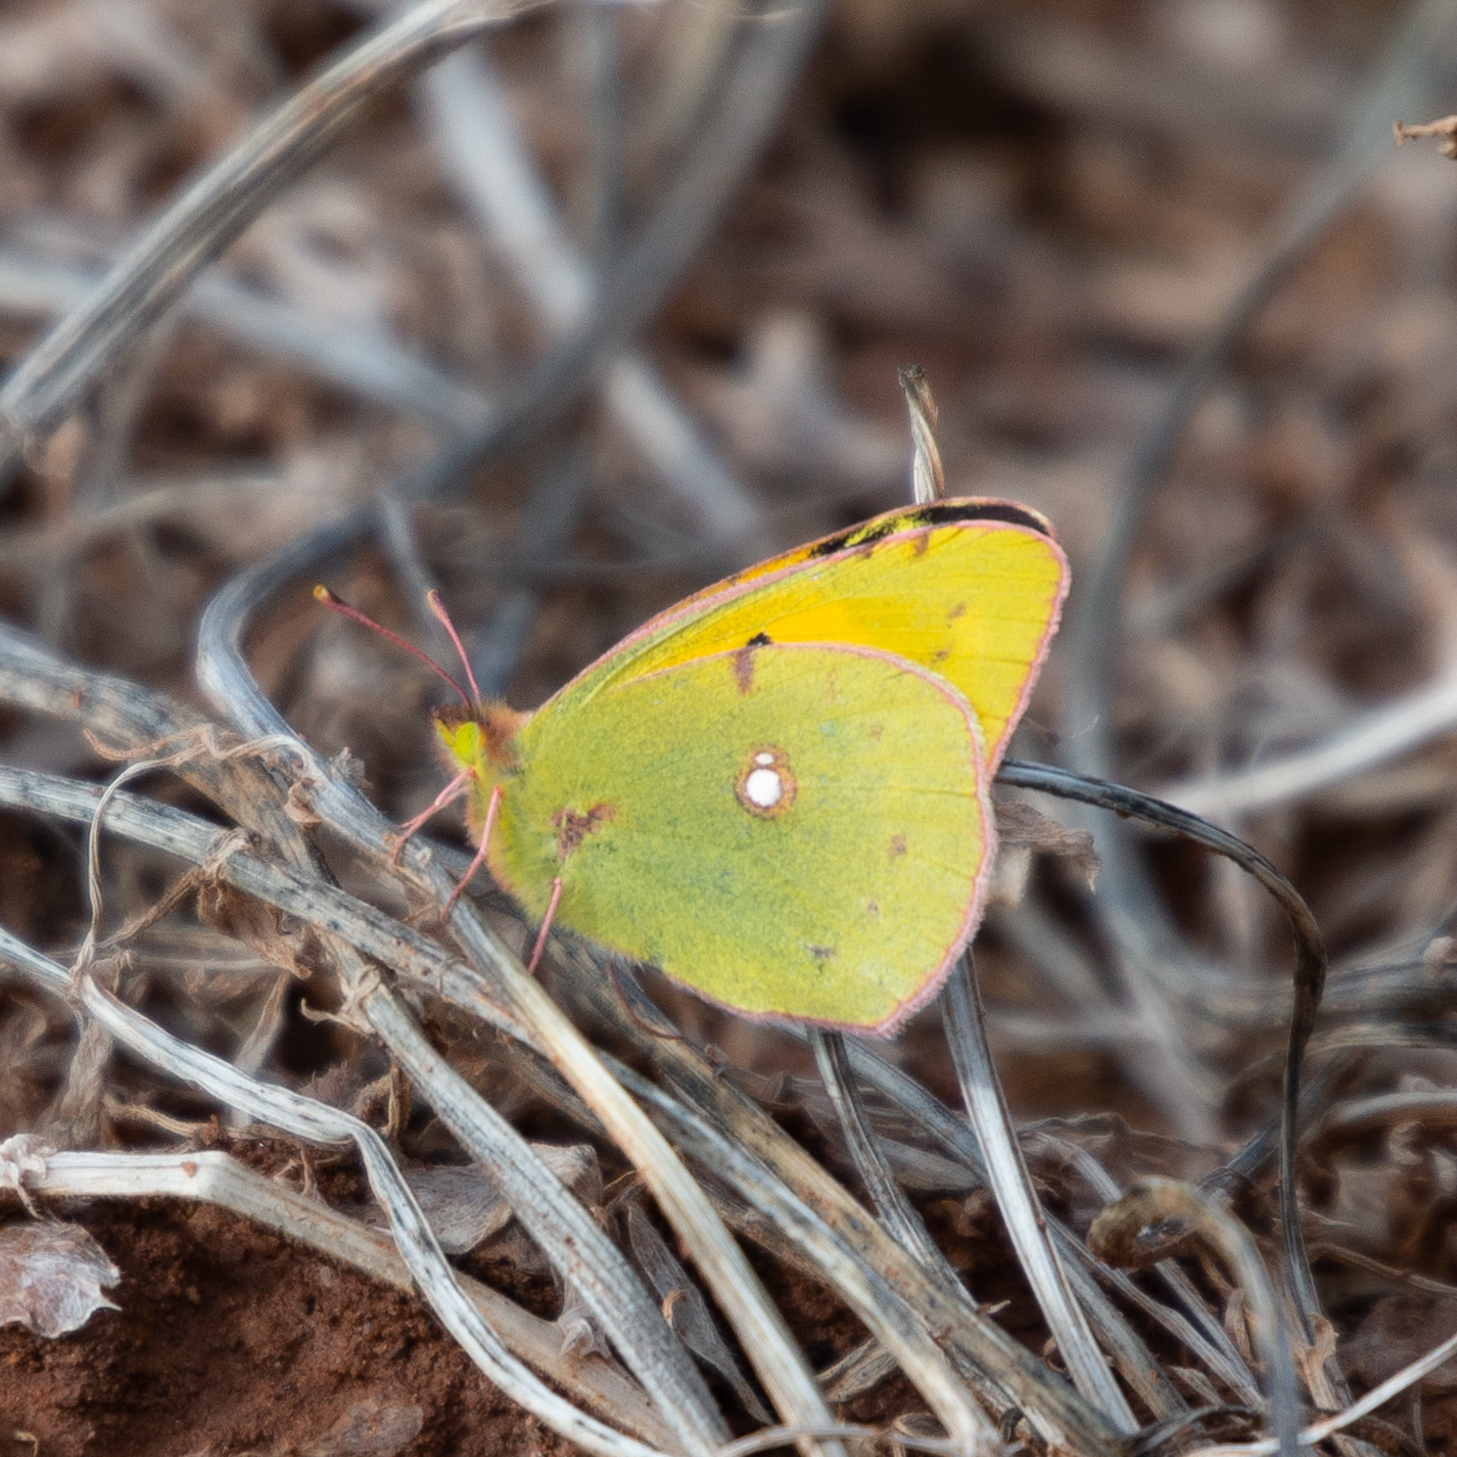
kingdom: Animalia
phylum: Arthropoda
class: Insecta
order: Lepidoptera
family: Pieridae
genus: Colias
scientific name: Colias croceus
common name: Clouded yellow
